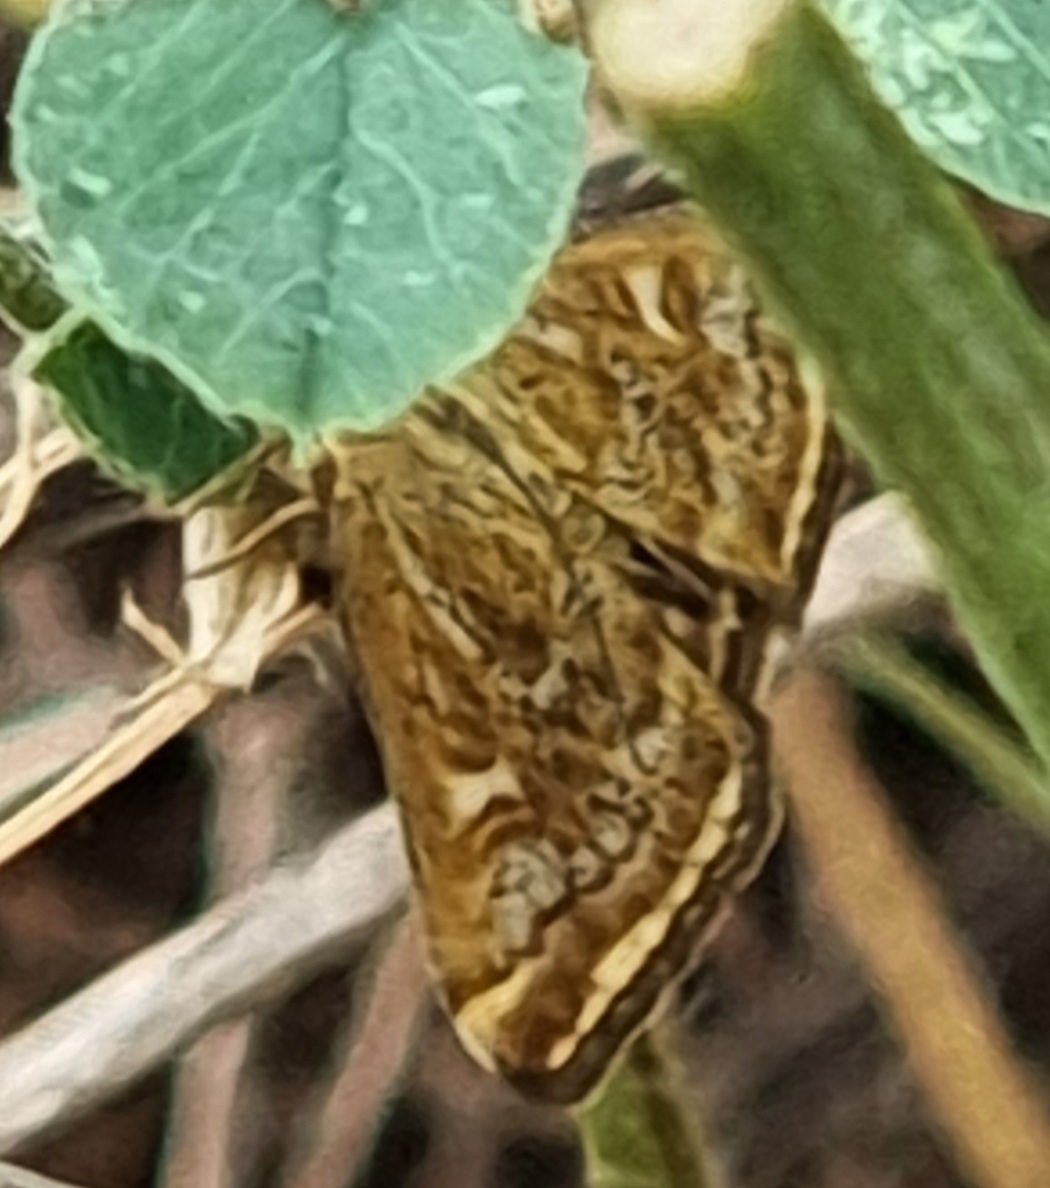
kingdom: Animalia
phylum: Arthropoda
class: Insecta
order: Lepidoptera
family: Crambidae
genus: Loxostege
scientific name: Loxostege sticticalis
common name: Crambid moth
